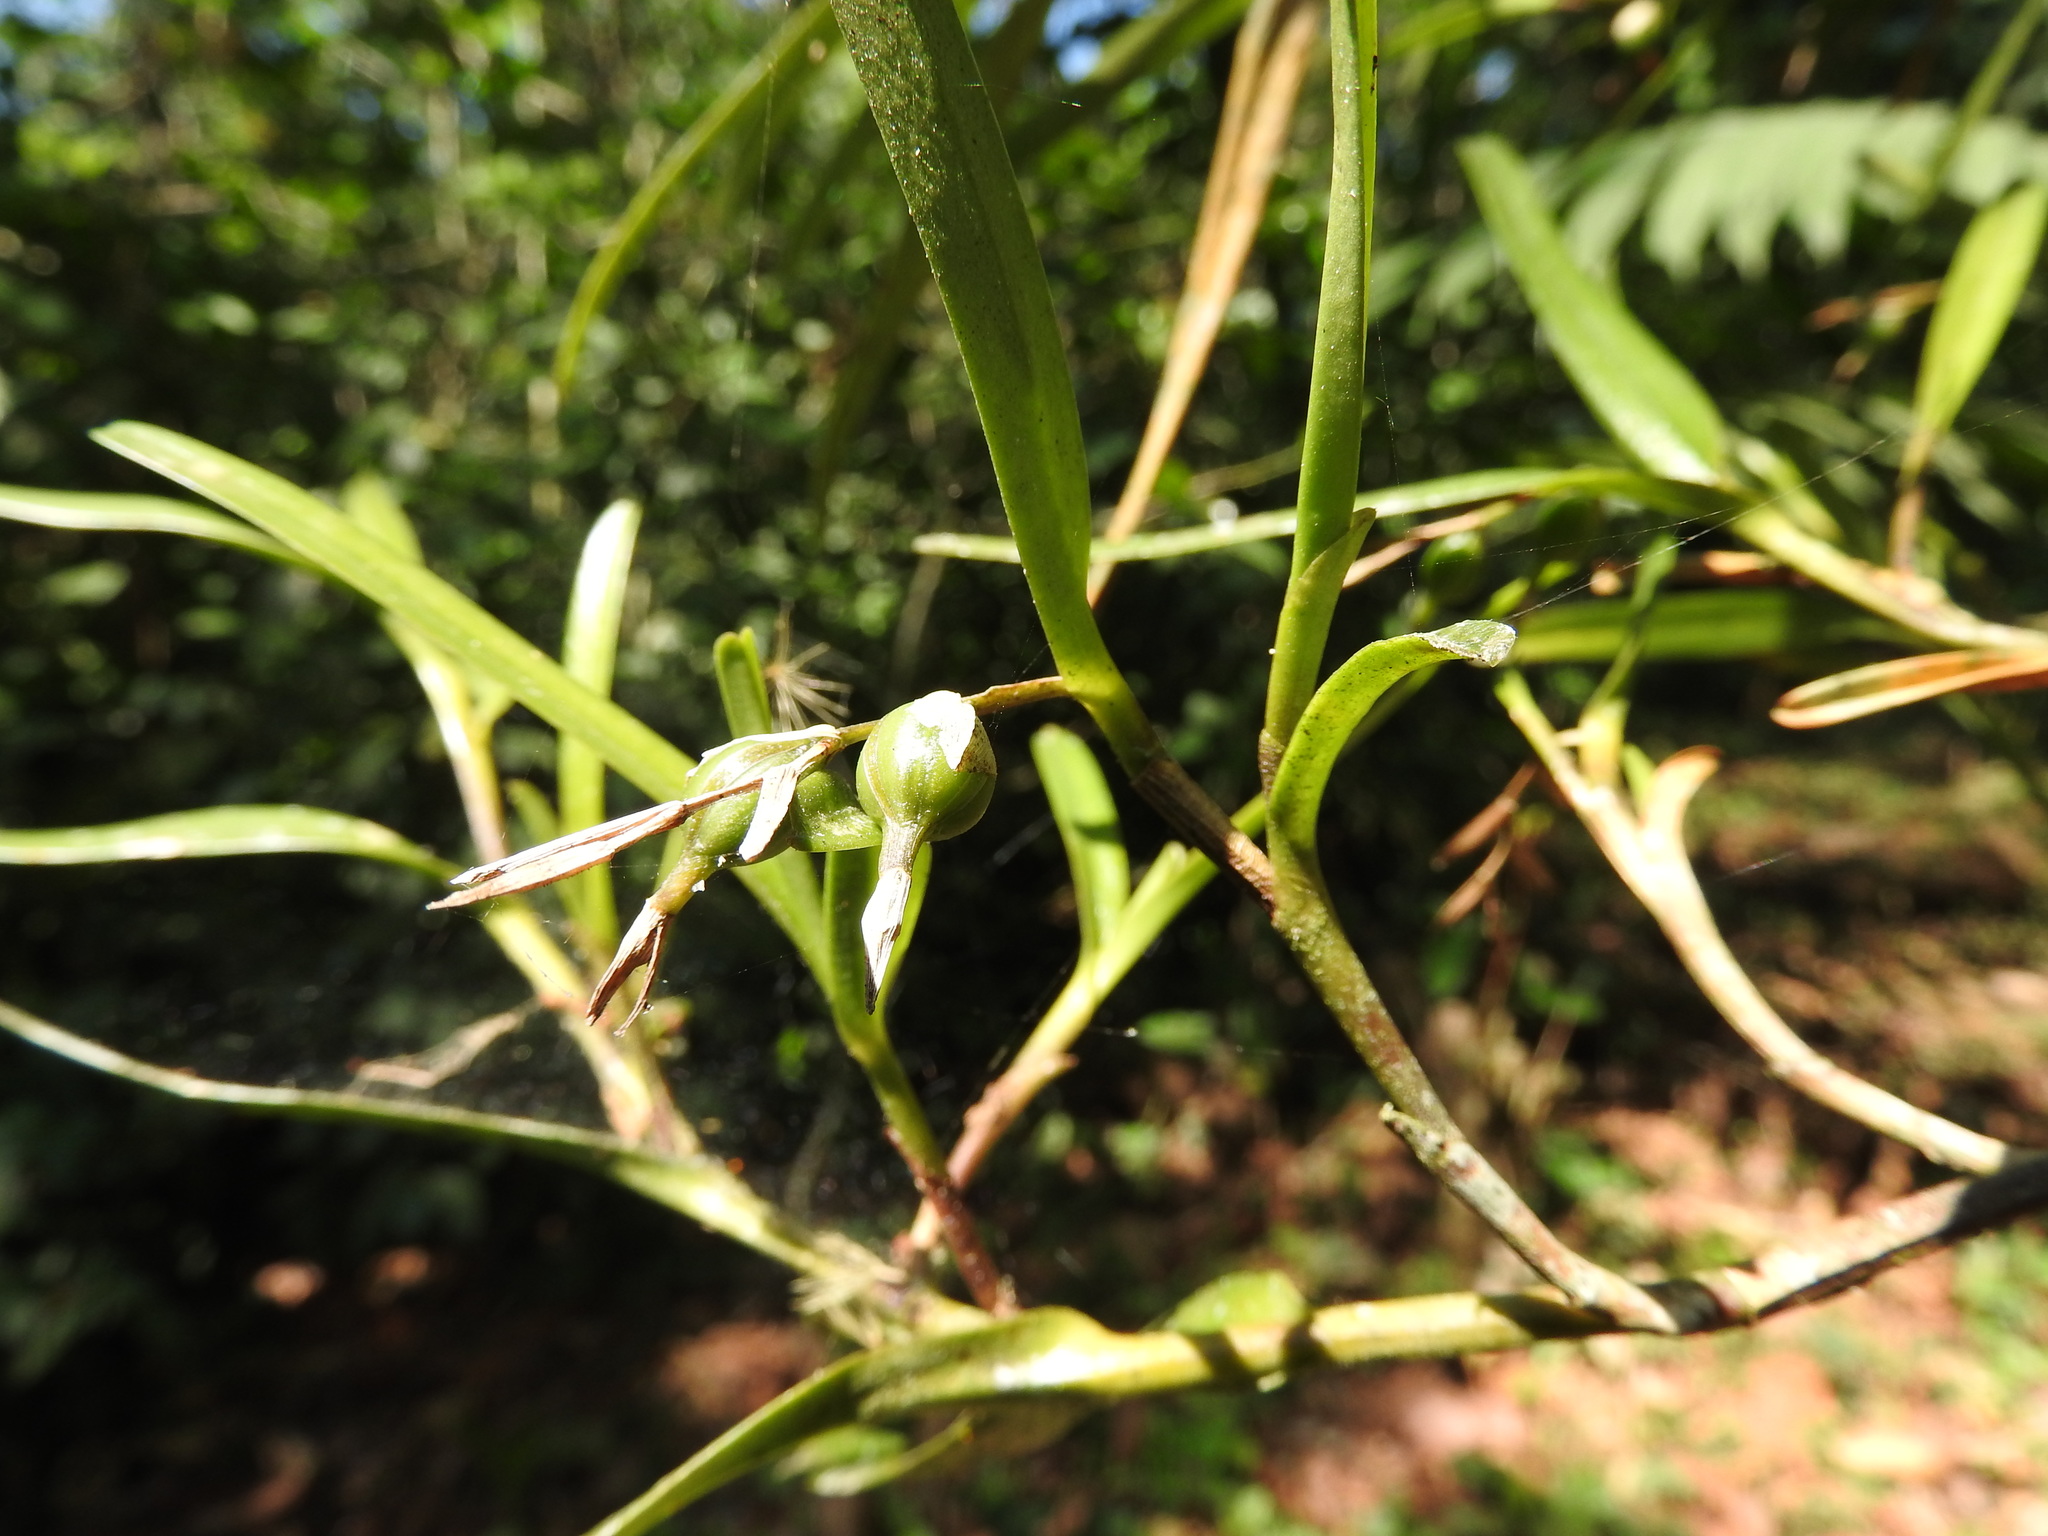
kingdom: Plantae
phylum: Tracheophyta
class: Liliopsida
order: Asparagales
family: Orchidaceae
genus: Epidendrum
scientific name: Epidendrum ramosum
